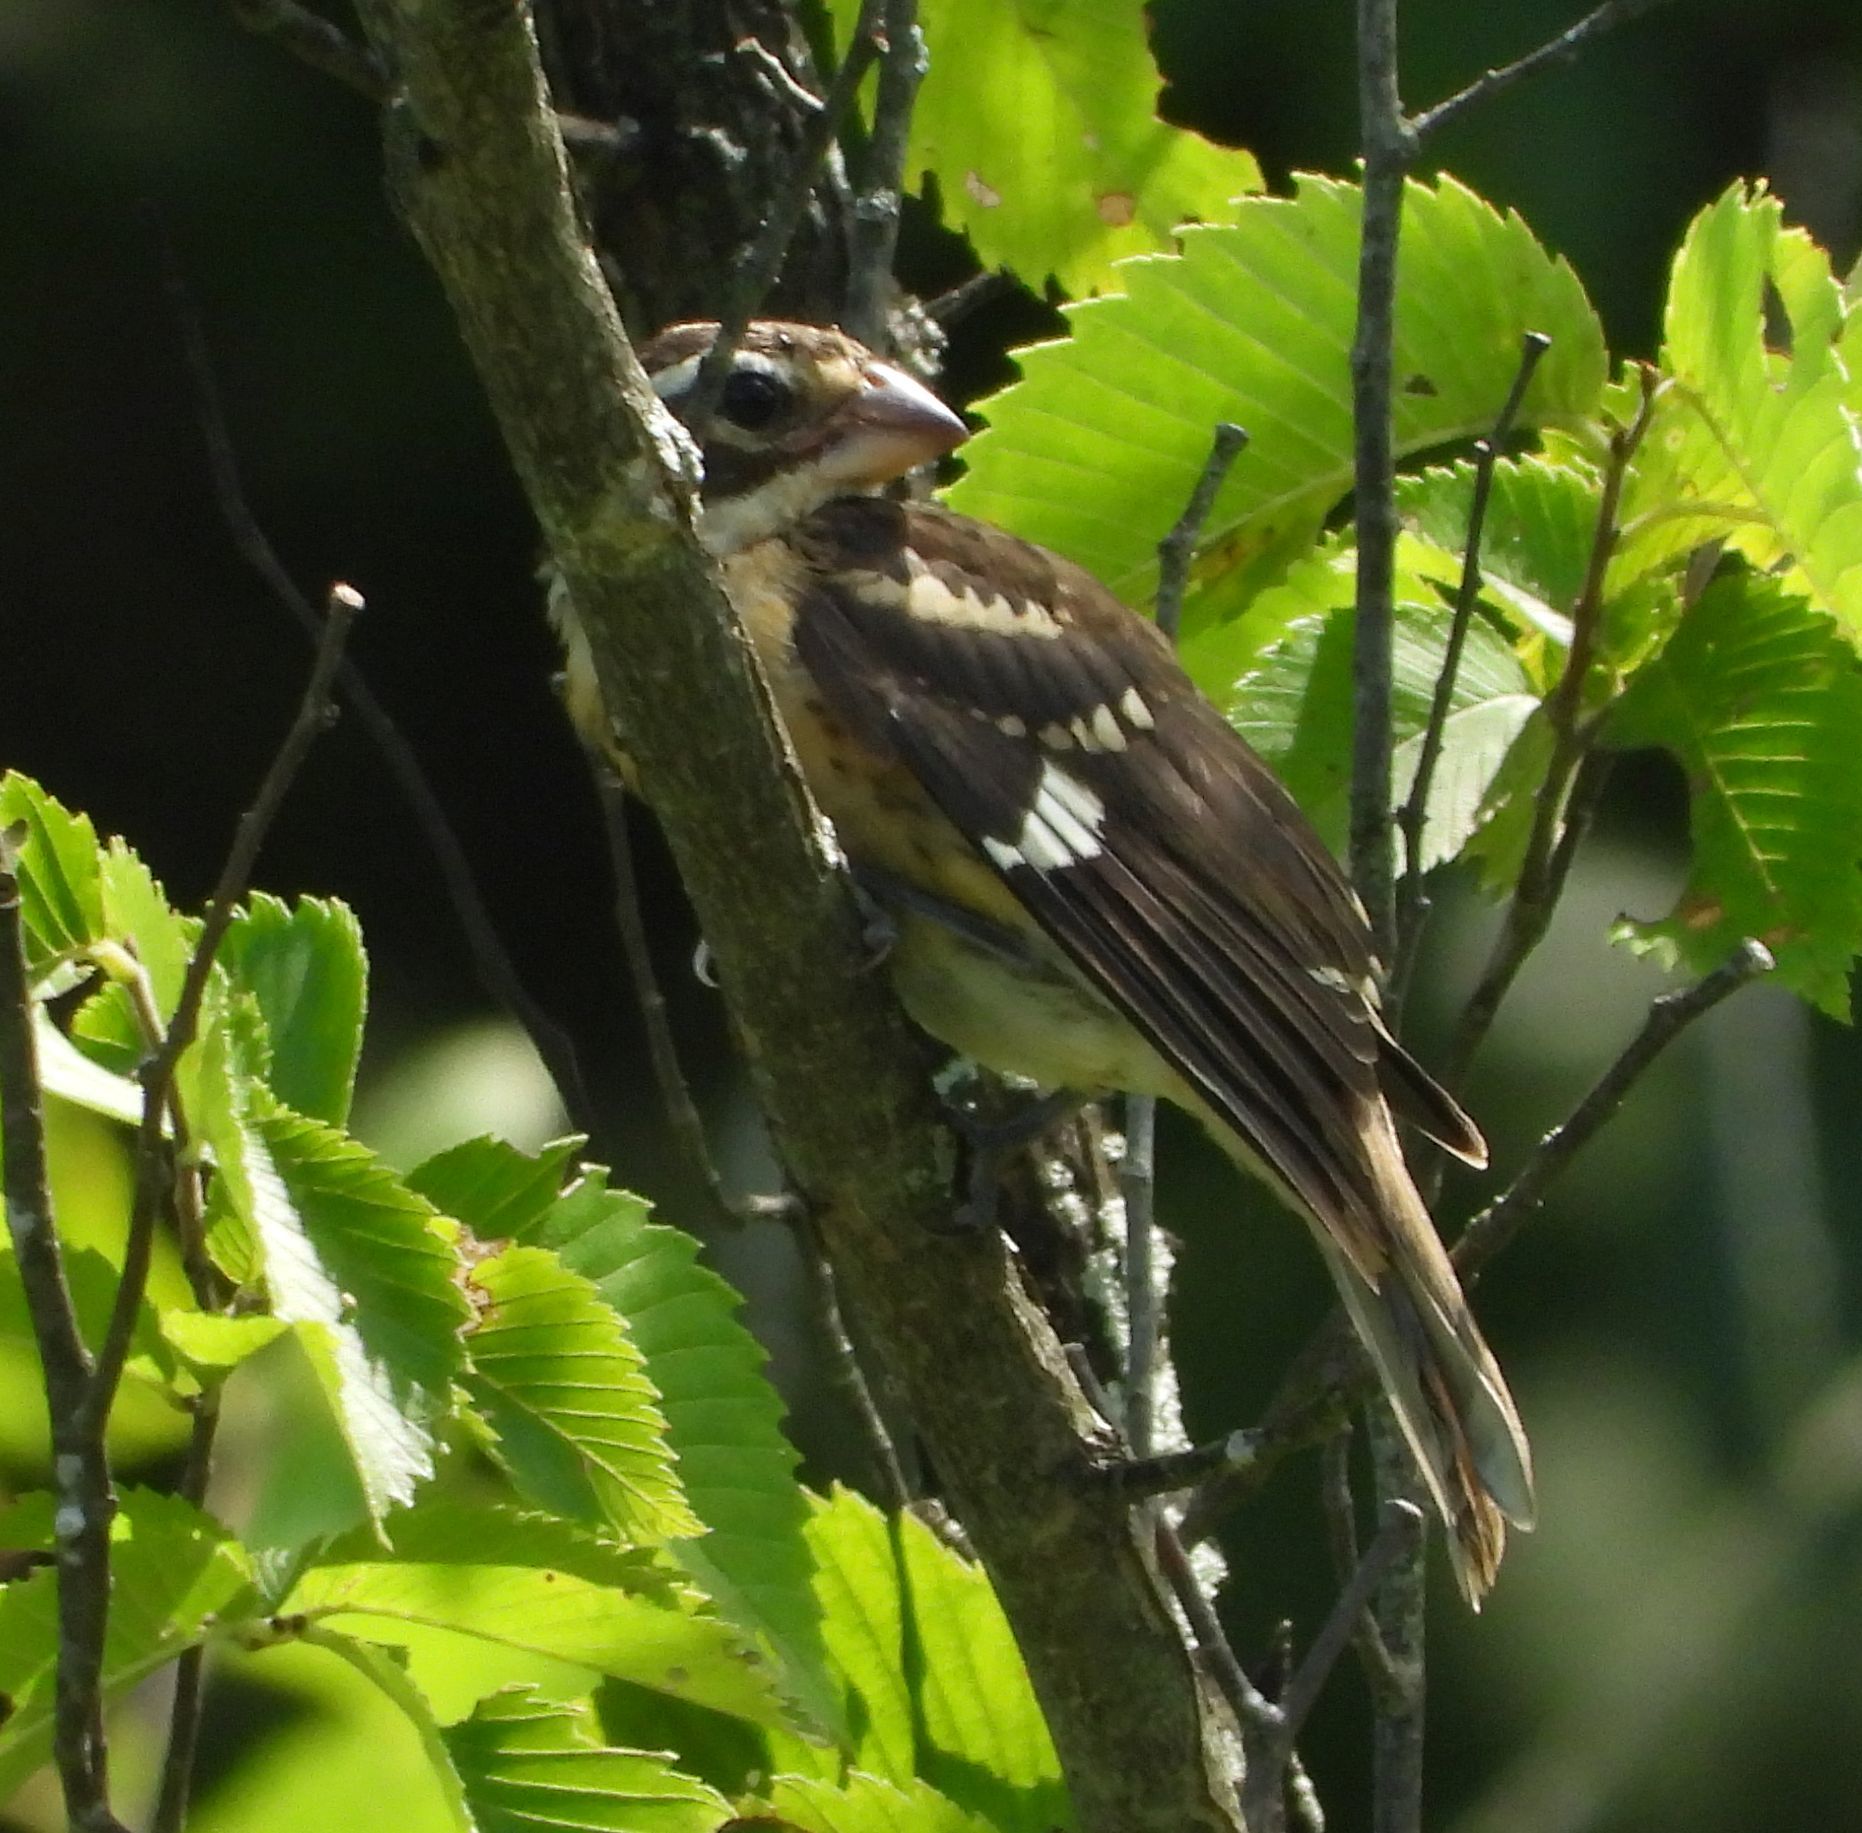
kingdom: Animalia
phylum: Chordata
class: Aves
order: Passeriformes
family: Cardinalidae
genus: Pheucticus
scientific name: Pheucticus ludovicianus
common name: Rose-breasted grosbeak
